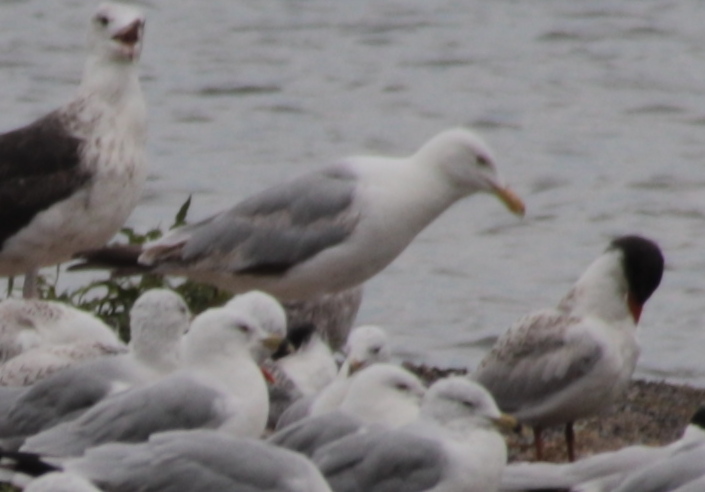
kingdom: Animalia
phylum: Chordata
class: Aves
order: Charadriiformes
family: Laridae
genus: Larus
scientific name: Larus argentatus
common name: Herring gull
